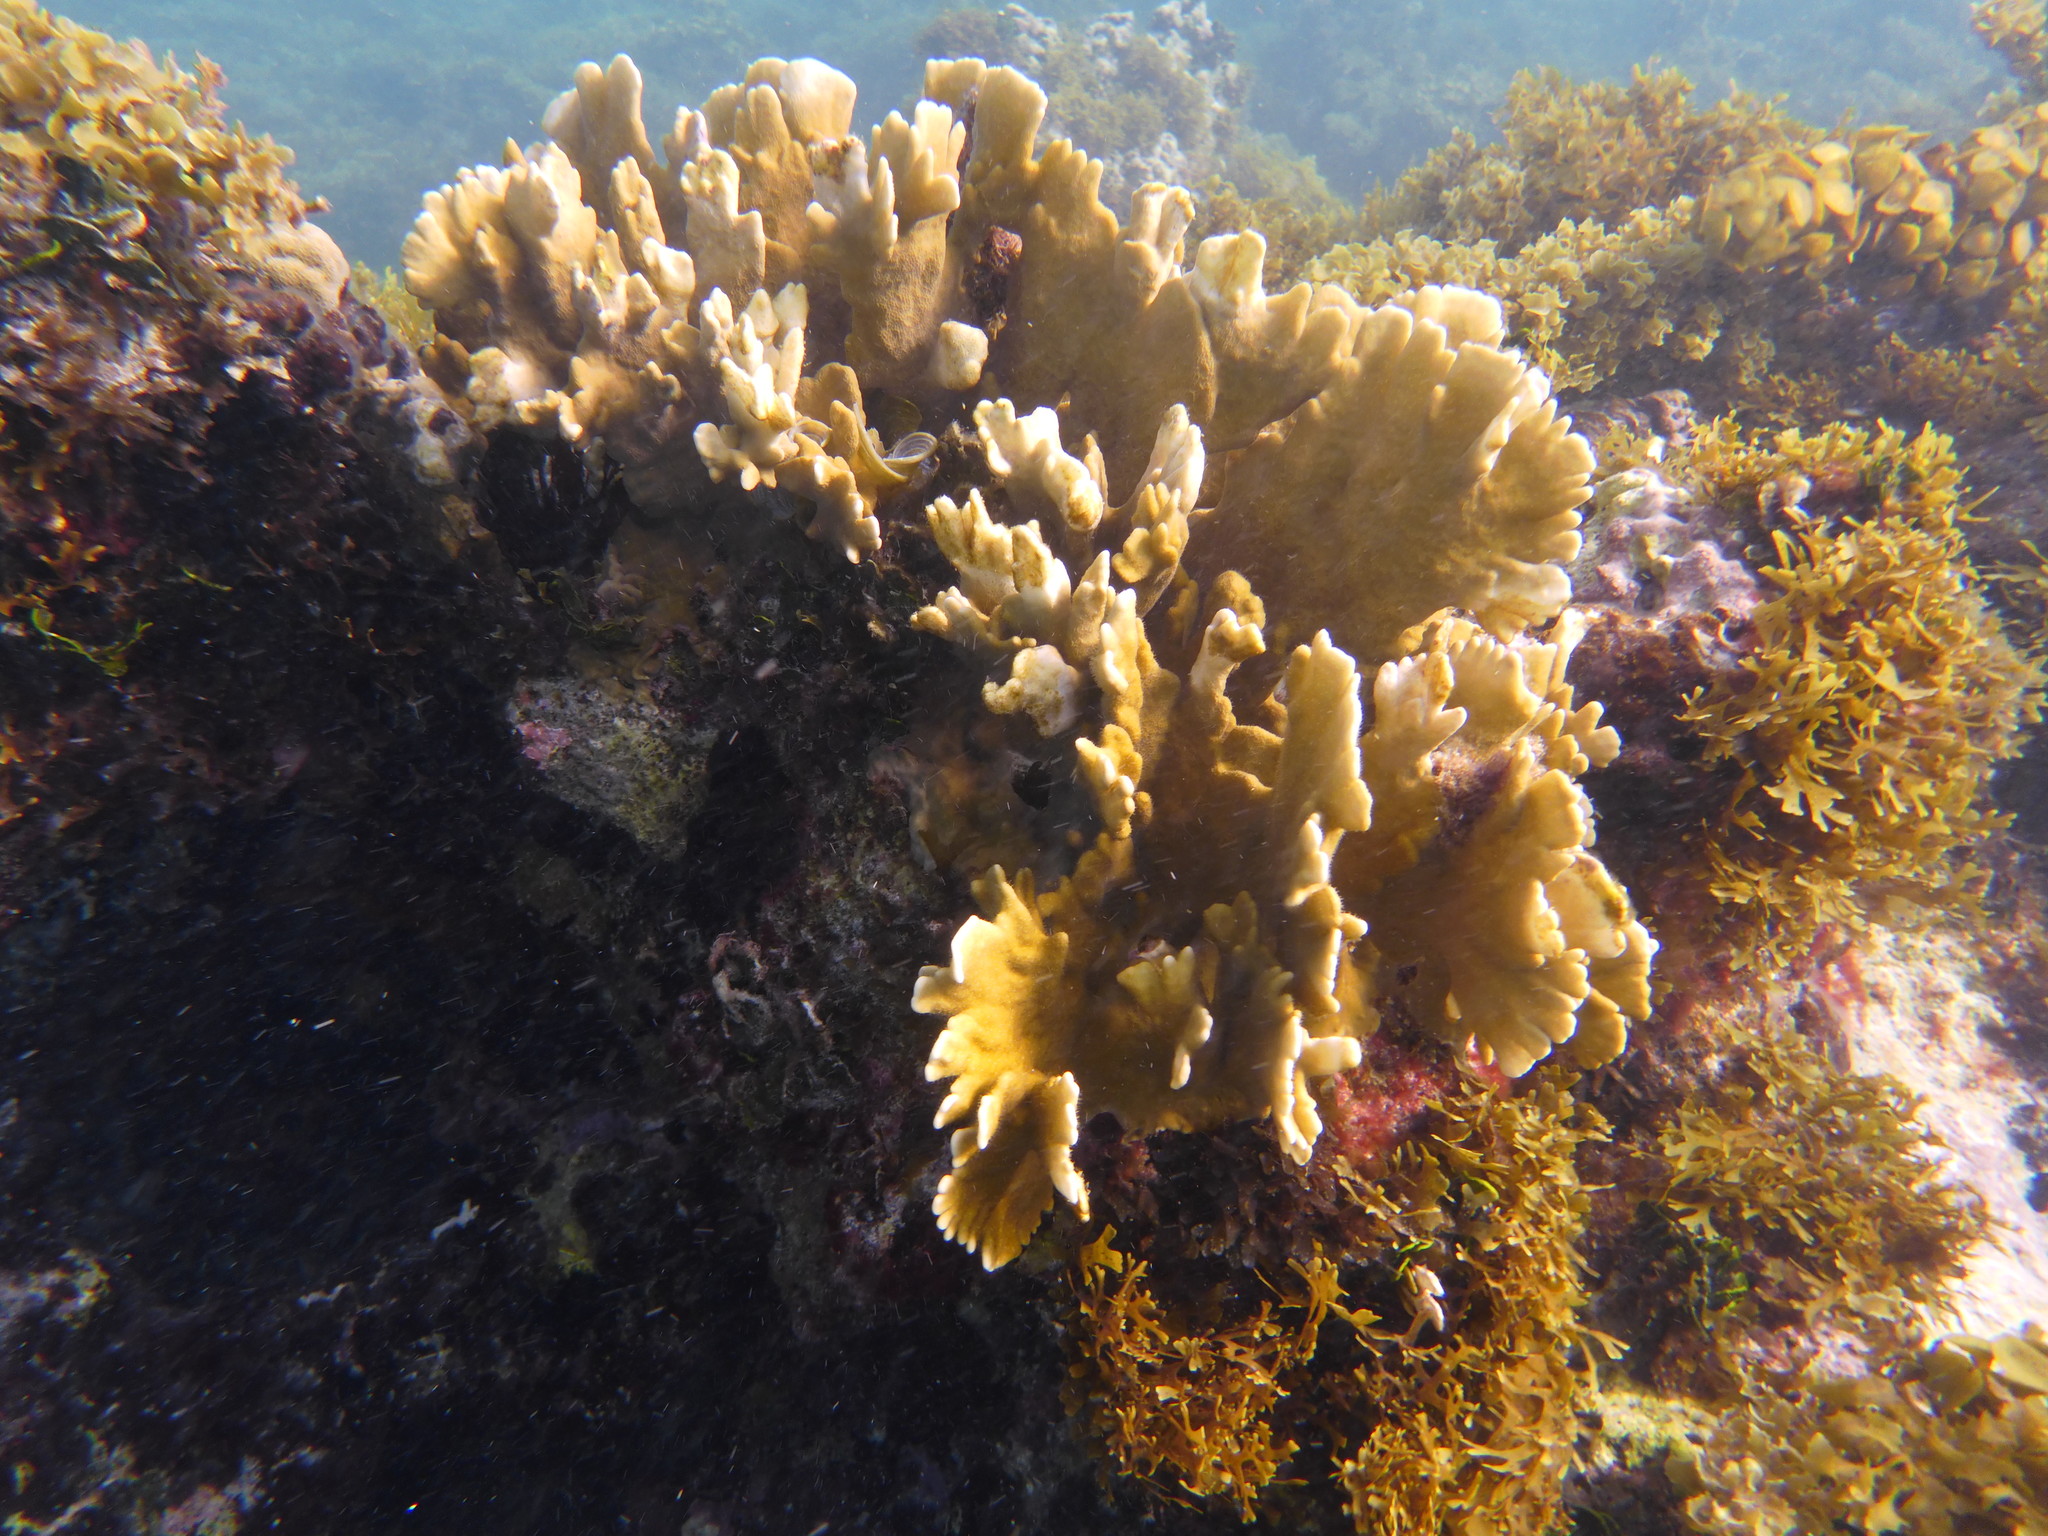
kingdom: Animalia
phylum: Cnidaria
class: Hydrozoa
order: Anthoathecata
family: Milleporidae
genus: Millepora
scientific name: Millepora complanata
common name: Bladed fire coral
